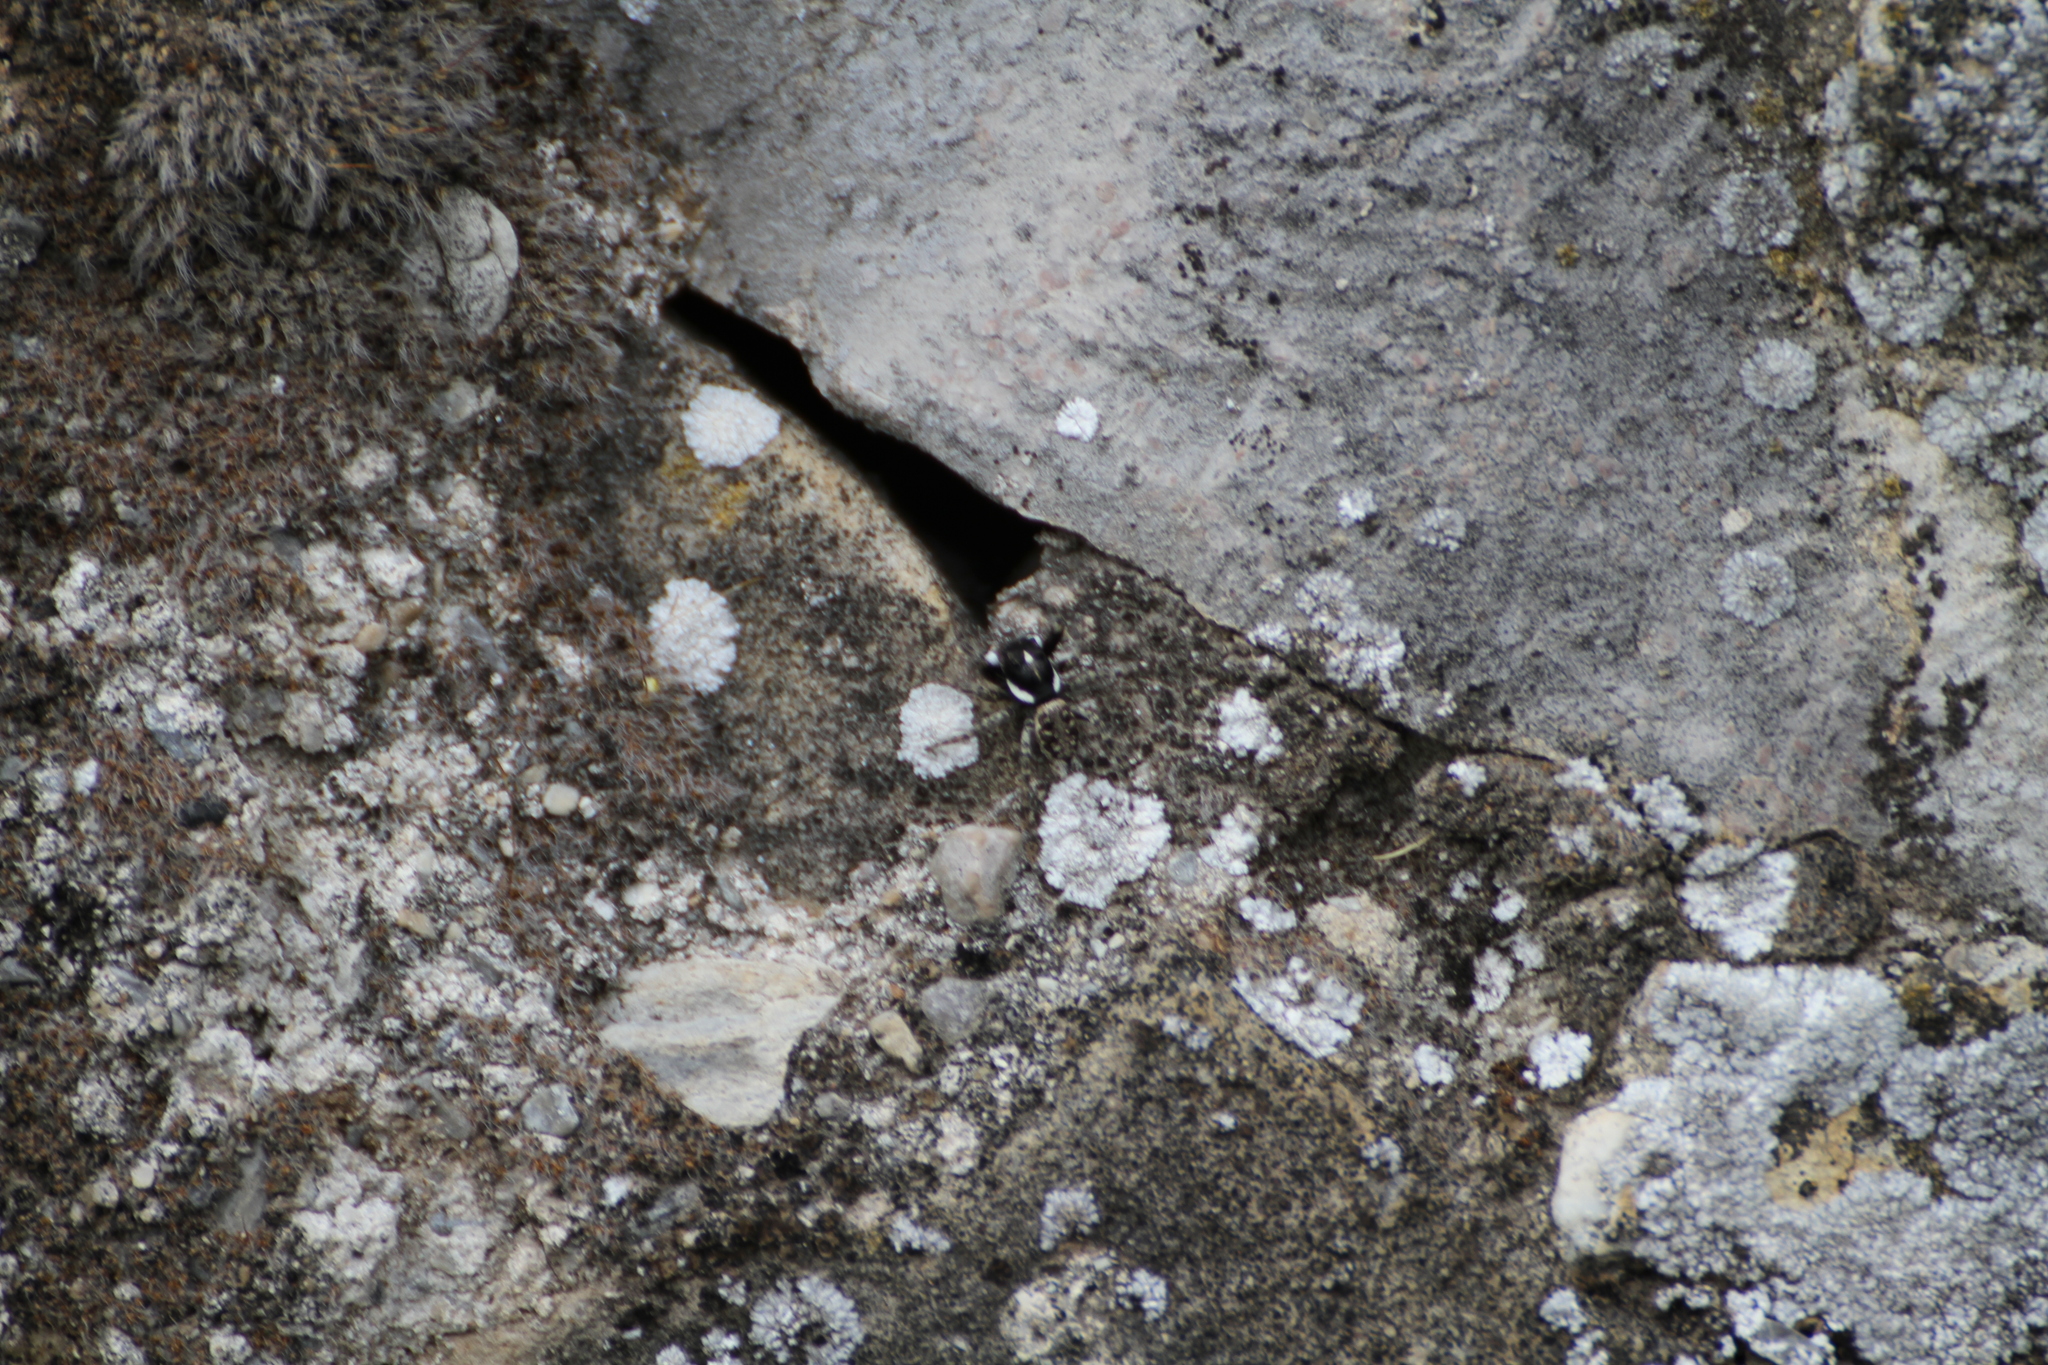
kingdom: Animalia
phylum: Arthropoda
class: Arachnida
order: Araneae
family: Salticidae
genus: Menemerus
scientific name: Menemerus semilimbatus
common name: Jumping spider
